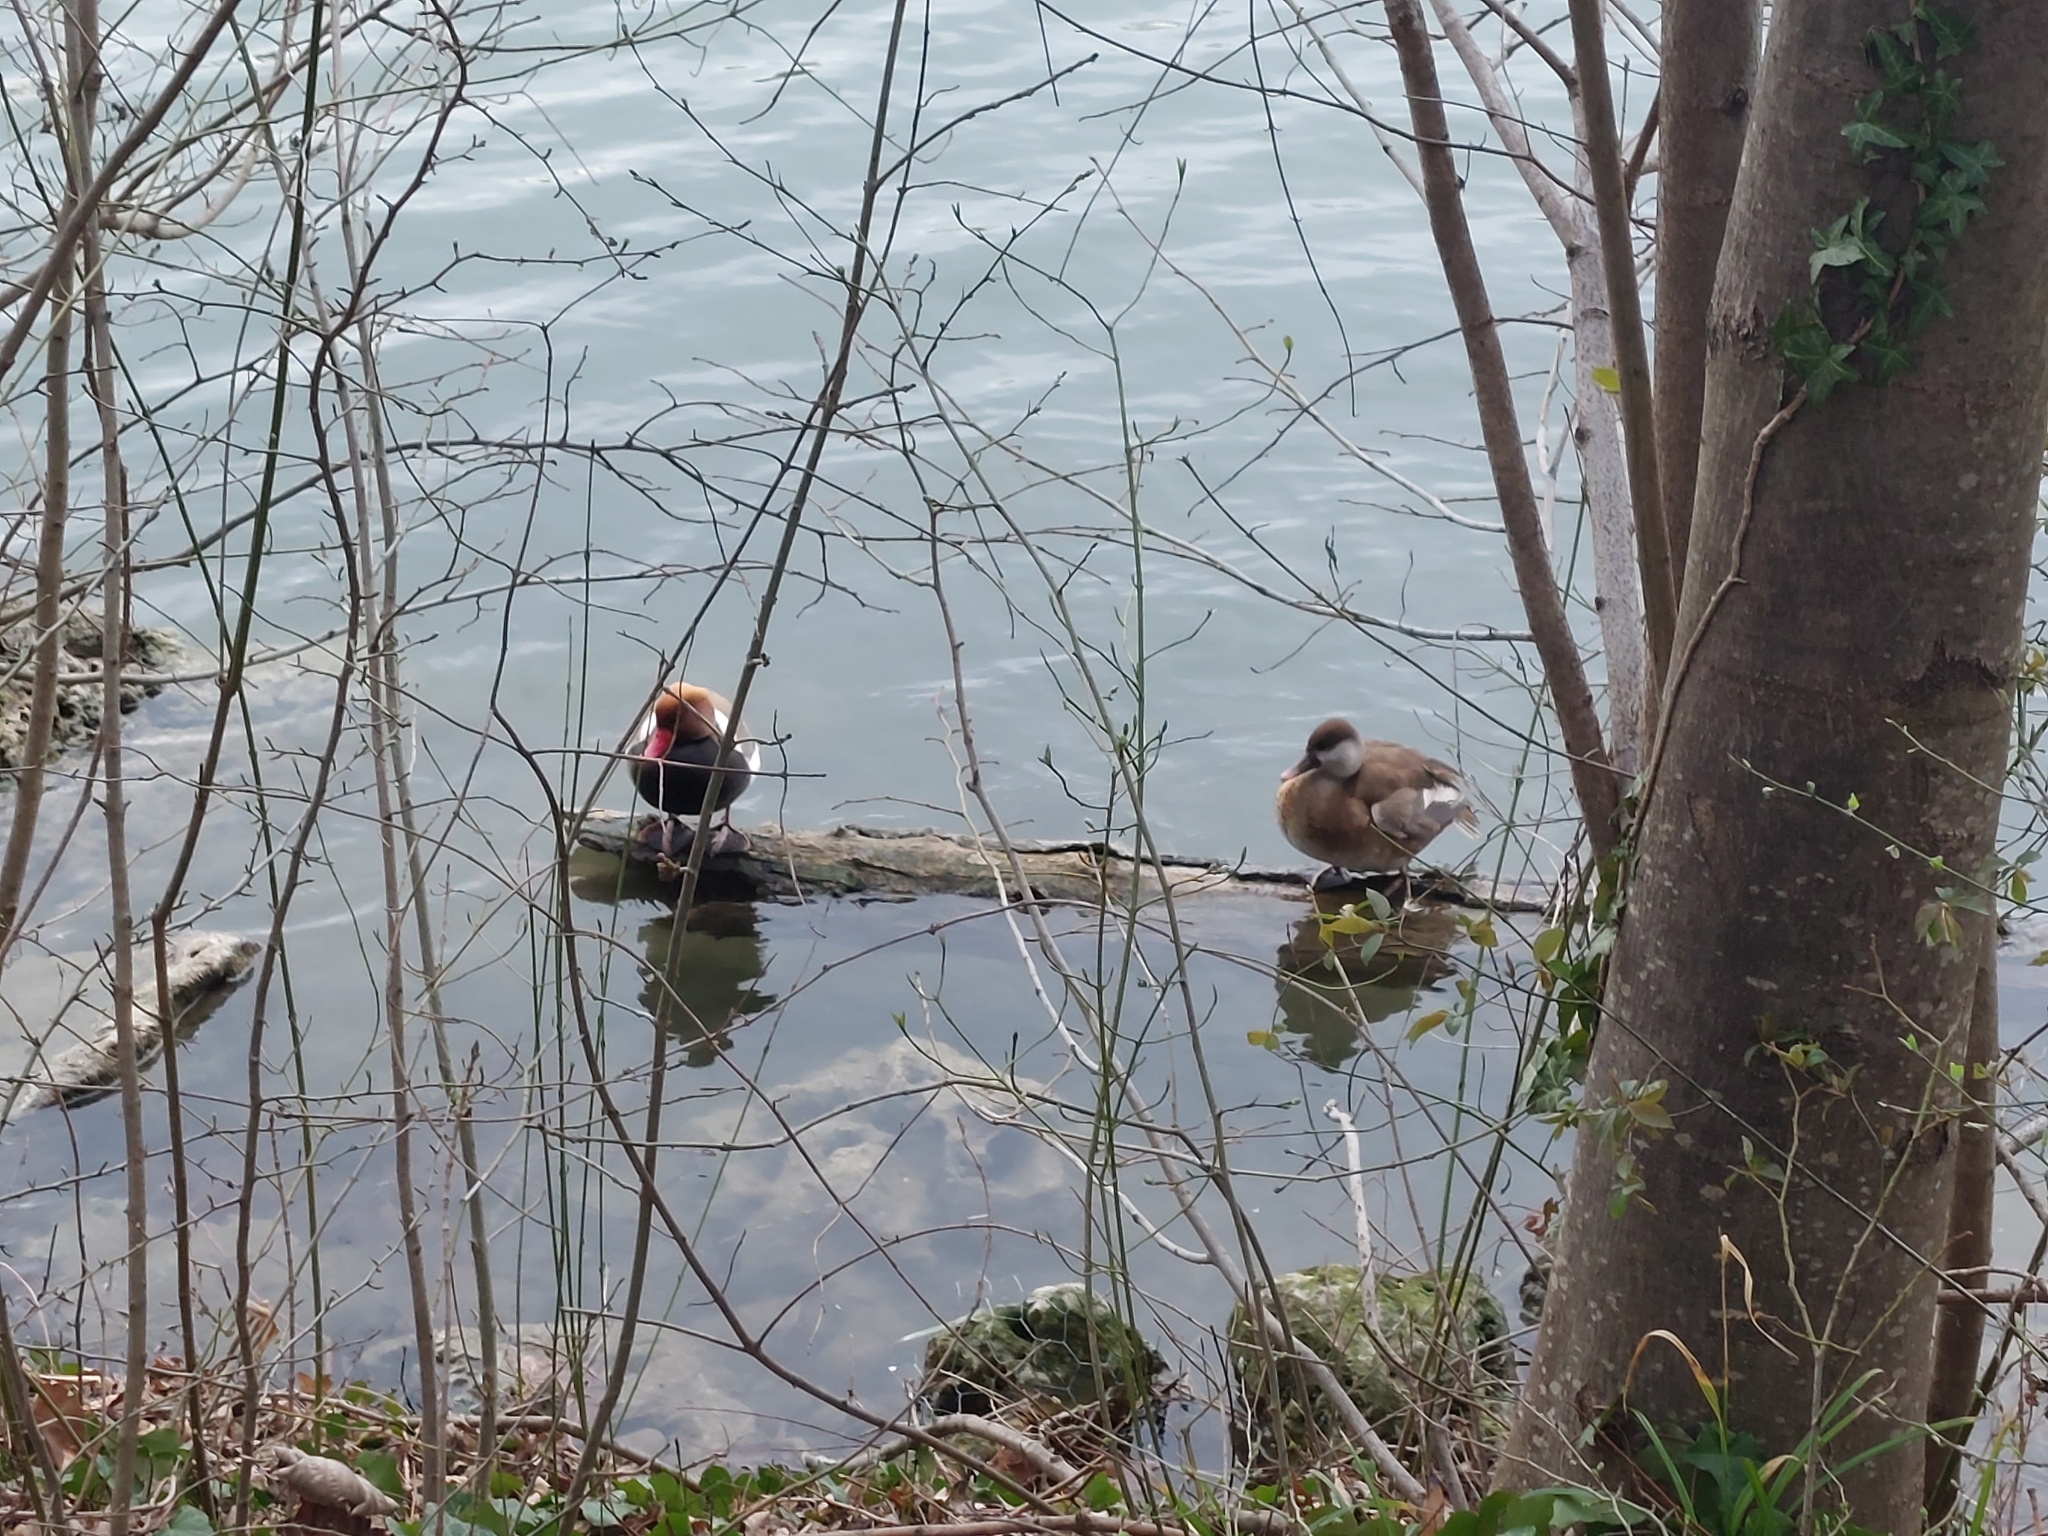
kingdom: Animalia
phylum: Chordata
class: Aves
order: Anseriformes
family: Anatidae
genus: Netta
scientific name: Netta rufina
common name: Red-crested pochard
